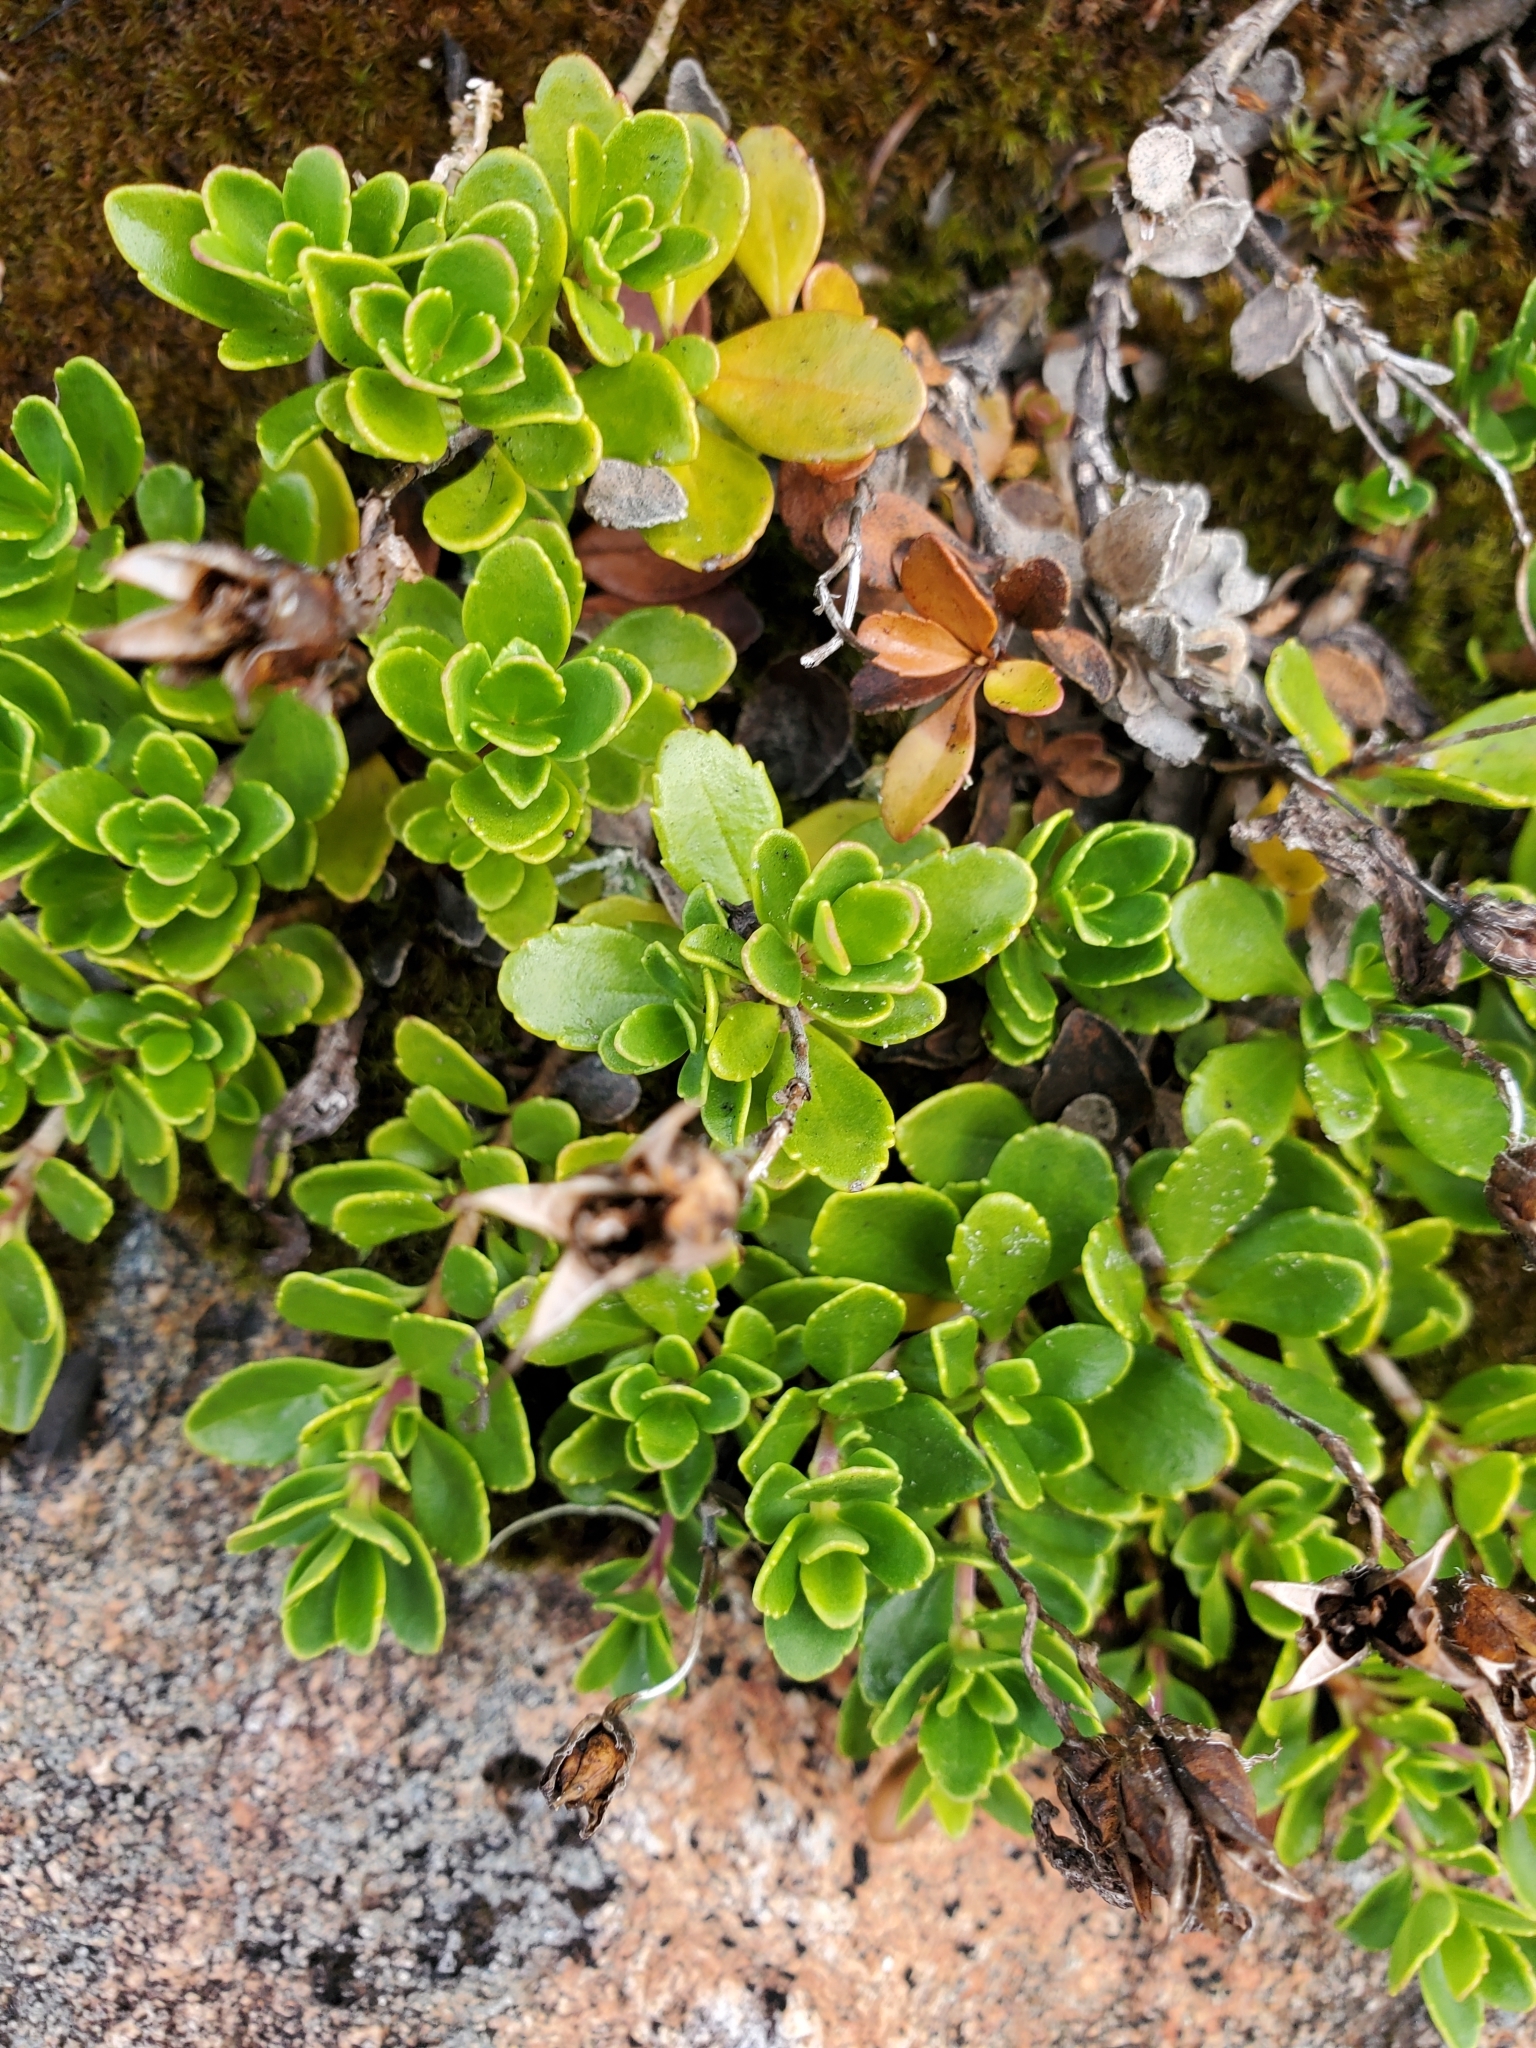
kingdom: Plantae
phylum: Tracheophyta
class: Magnoliopsida
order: Lamiales
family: Plantaginaceae
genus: Penstemon
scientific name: Penstemon davidsonii
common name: Davidson's penstemon
